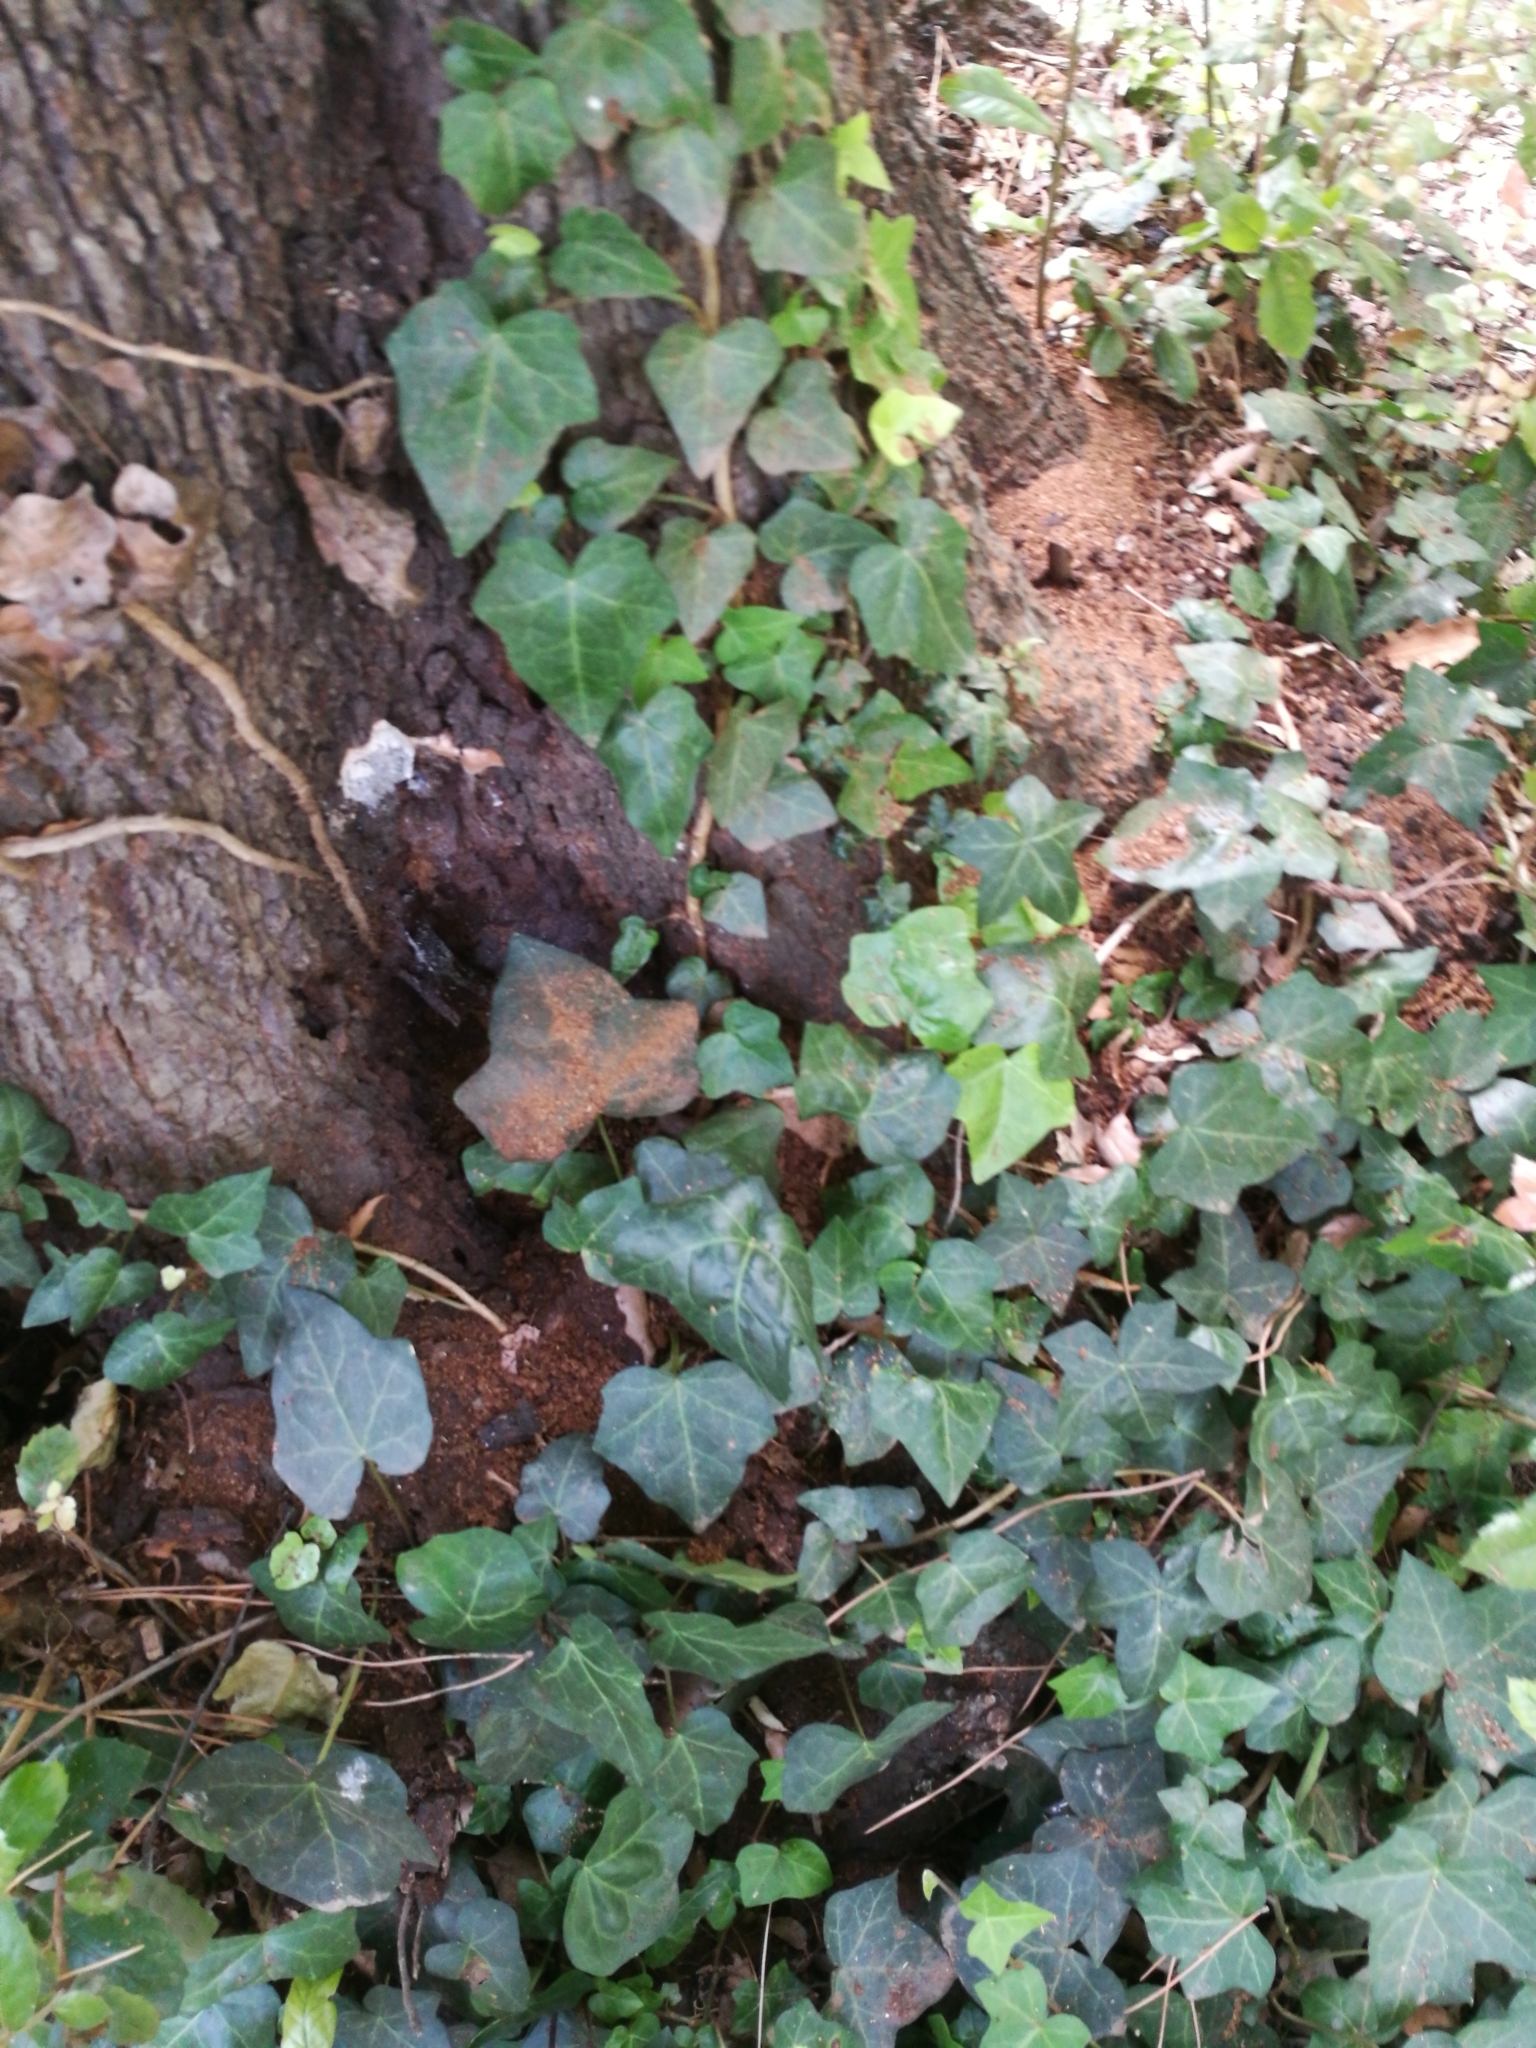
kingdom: Plantae
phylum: Tracheophyta
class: Magnoliopsida
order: Apiales
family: Araliaceae
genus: Hedera
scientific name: Hedera helix
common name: Ivy
